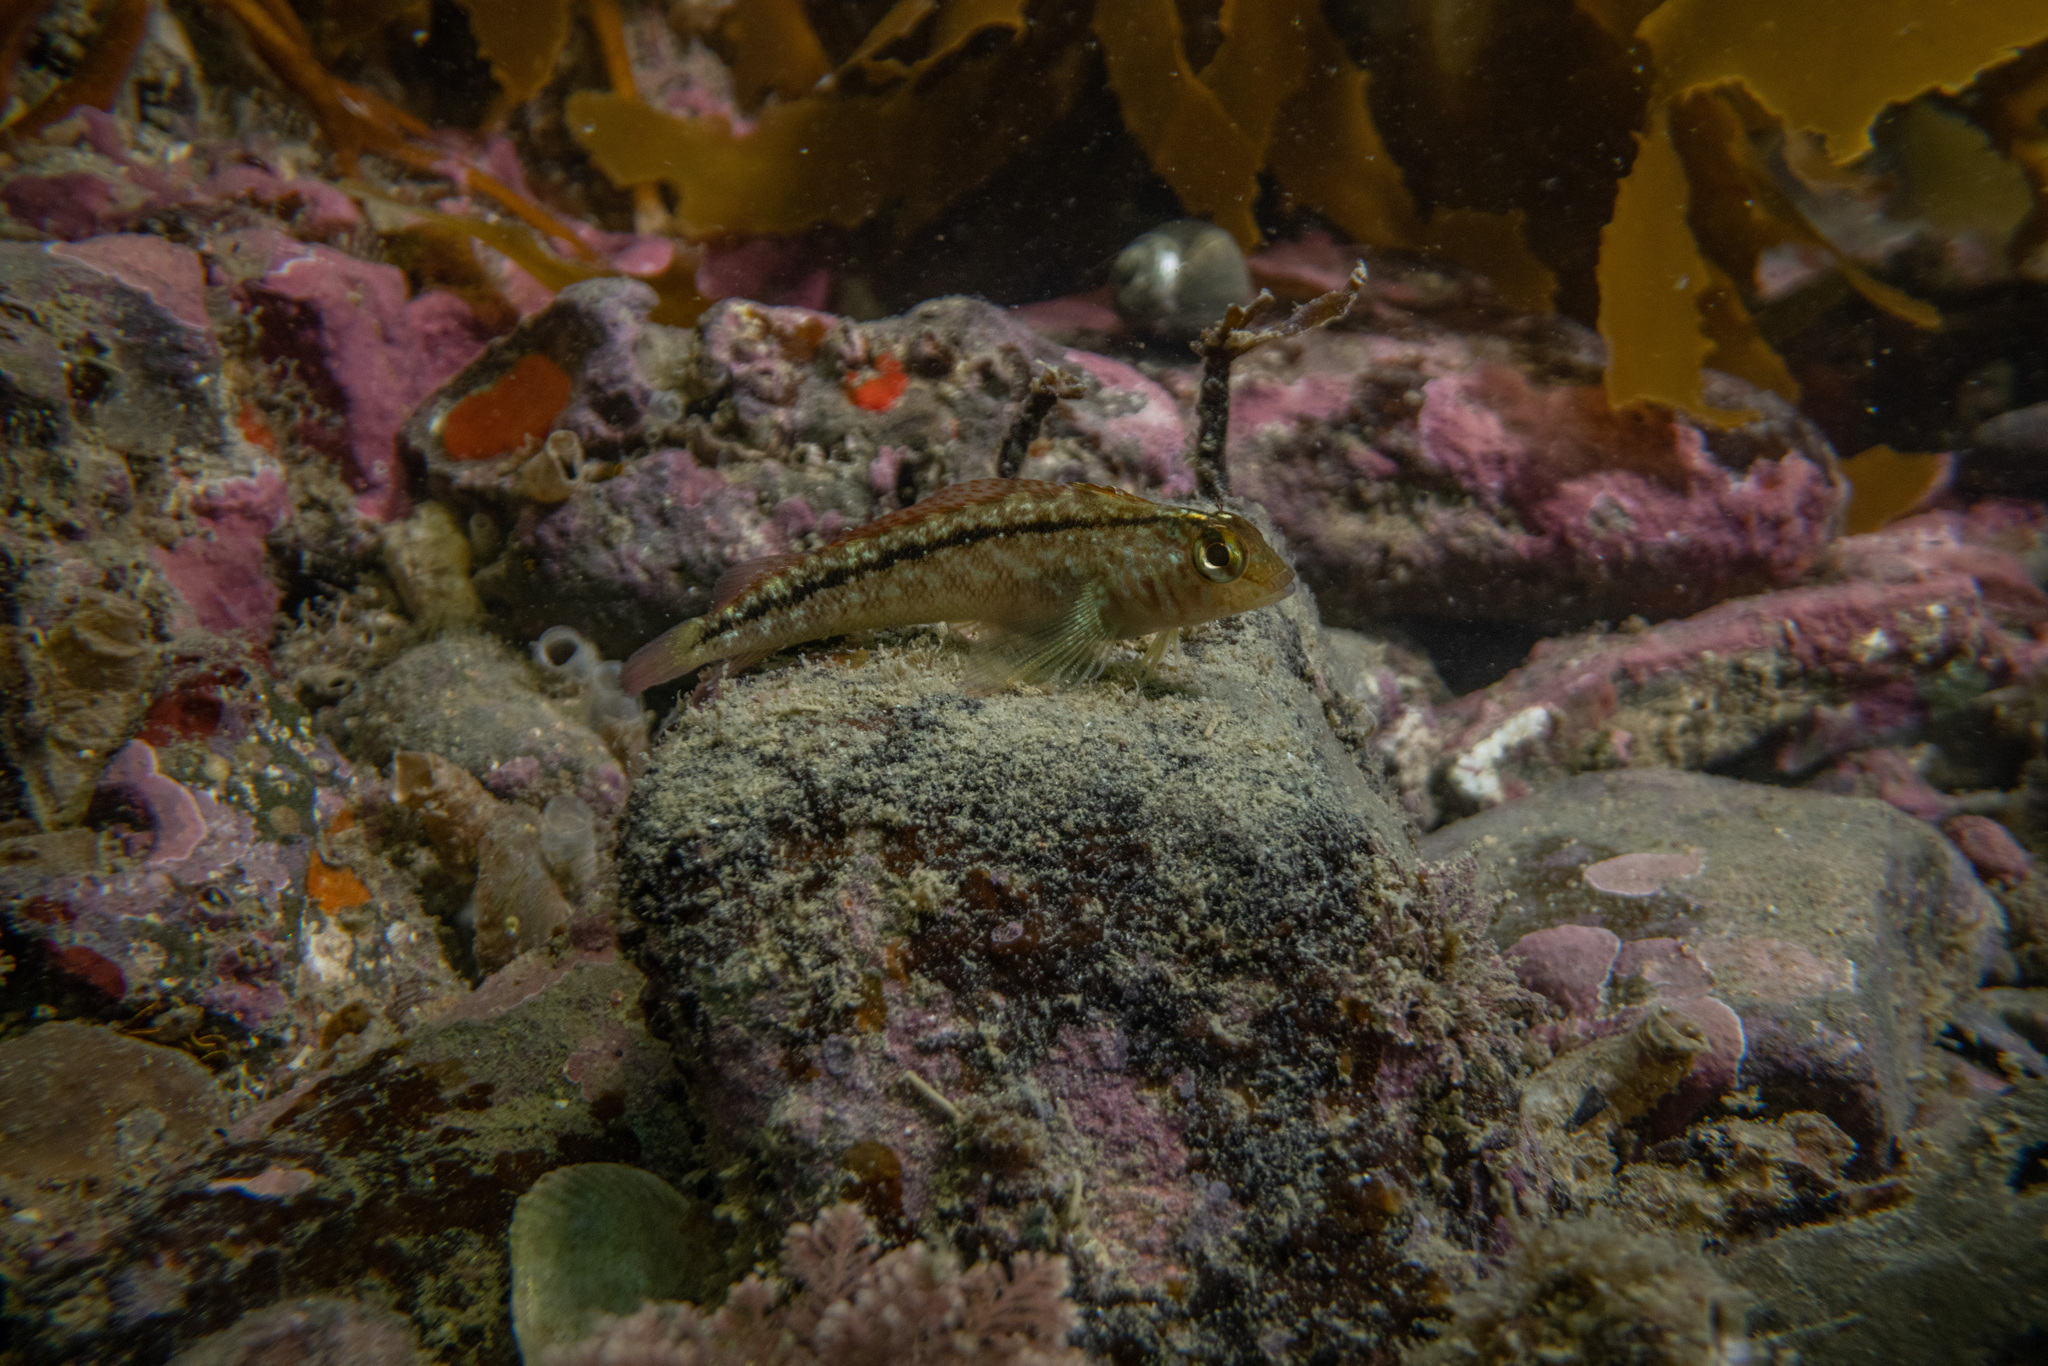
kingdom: Animalia
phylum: Chordata
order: Perciformes
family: Tripterygiidae
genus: Forsterygion
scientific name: Forsterygion lapillum
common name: Common triplefin
